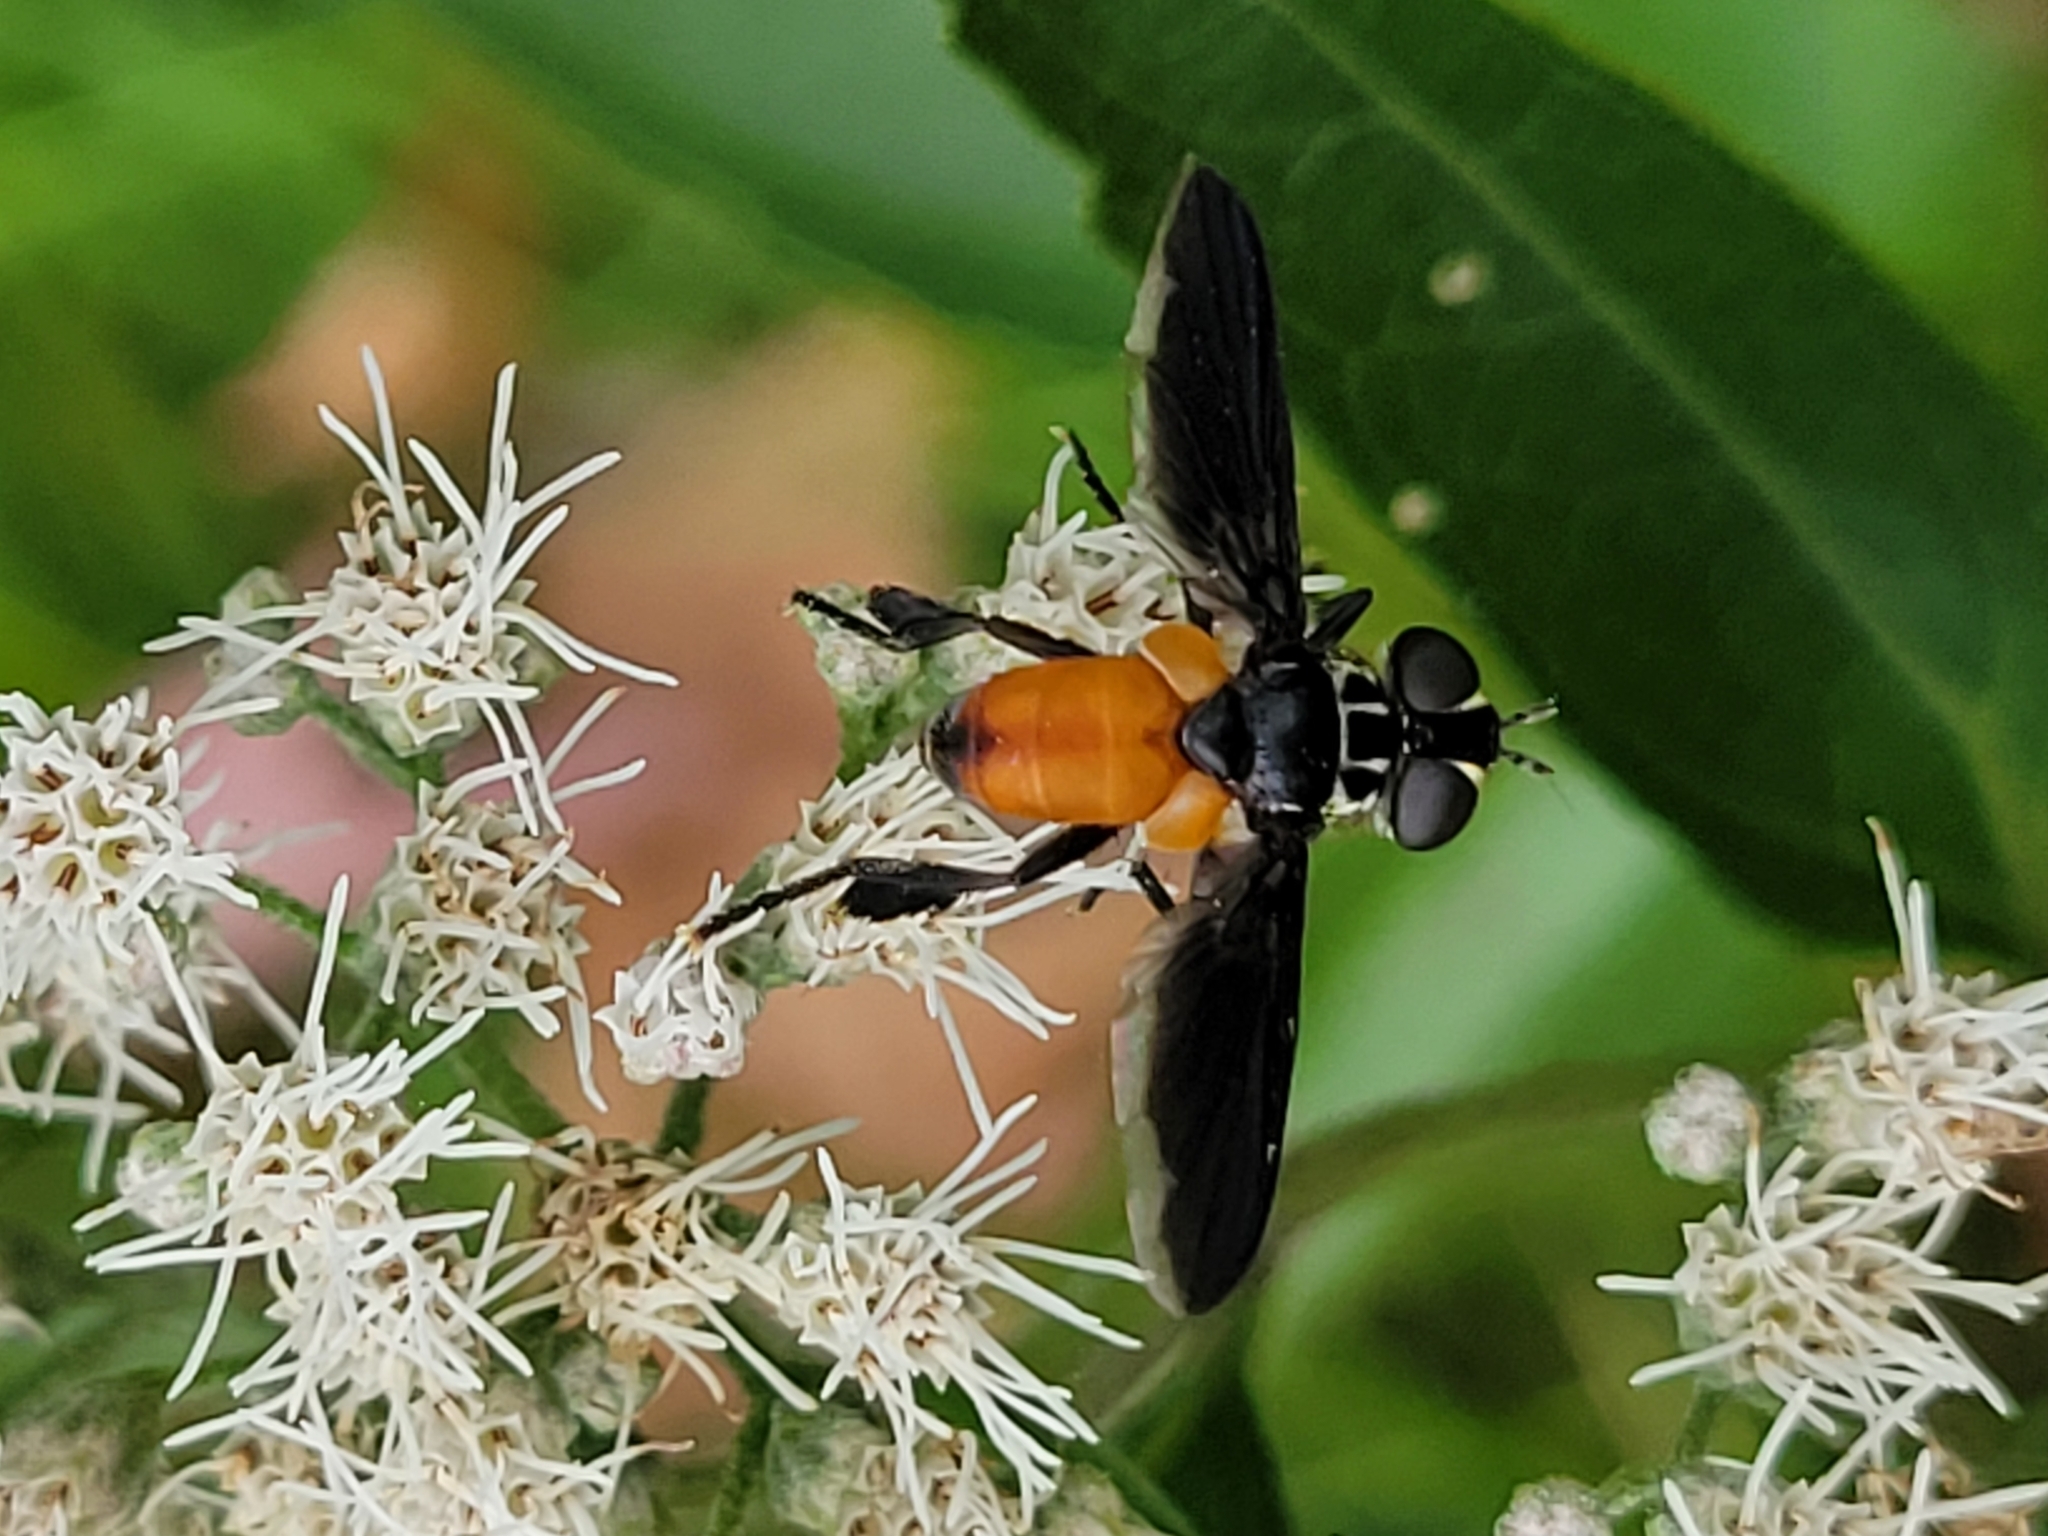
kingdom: Animalia
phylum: Arthropoda
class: Insecta
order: Diptera
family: Tachinidae
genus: Trichopoda
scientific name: Trichopoda pennipes
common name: Tachinid fly
